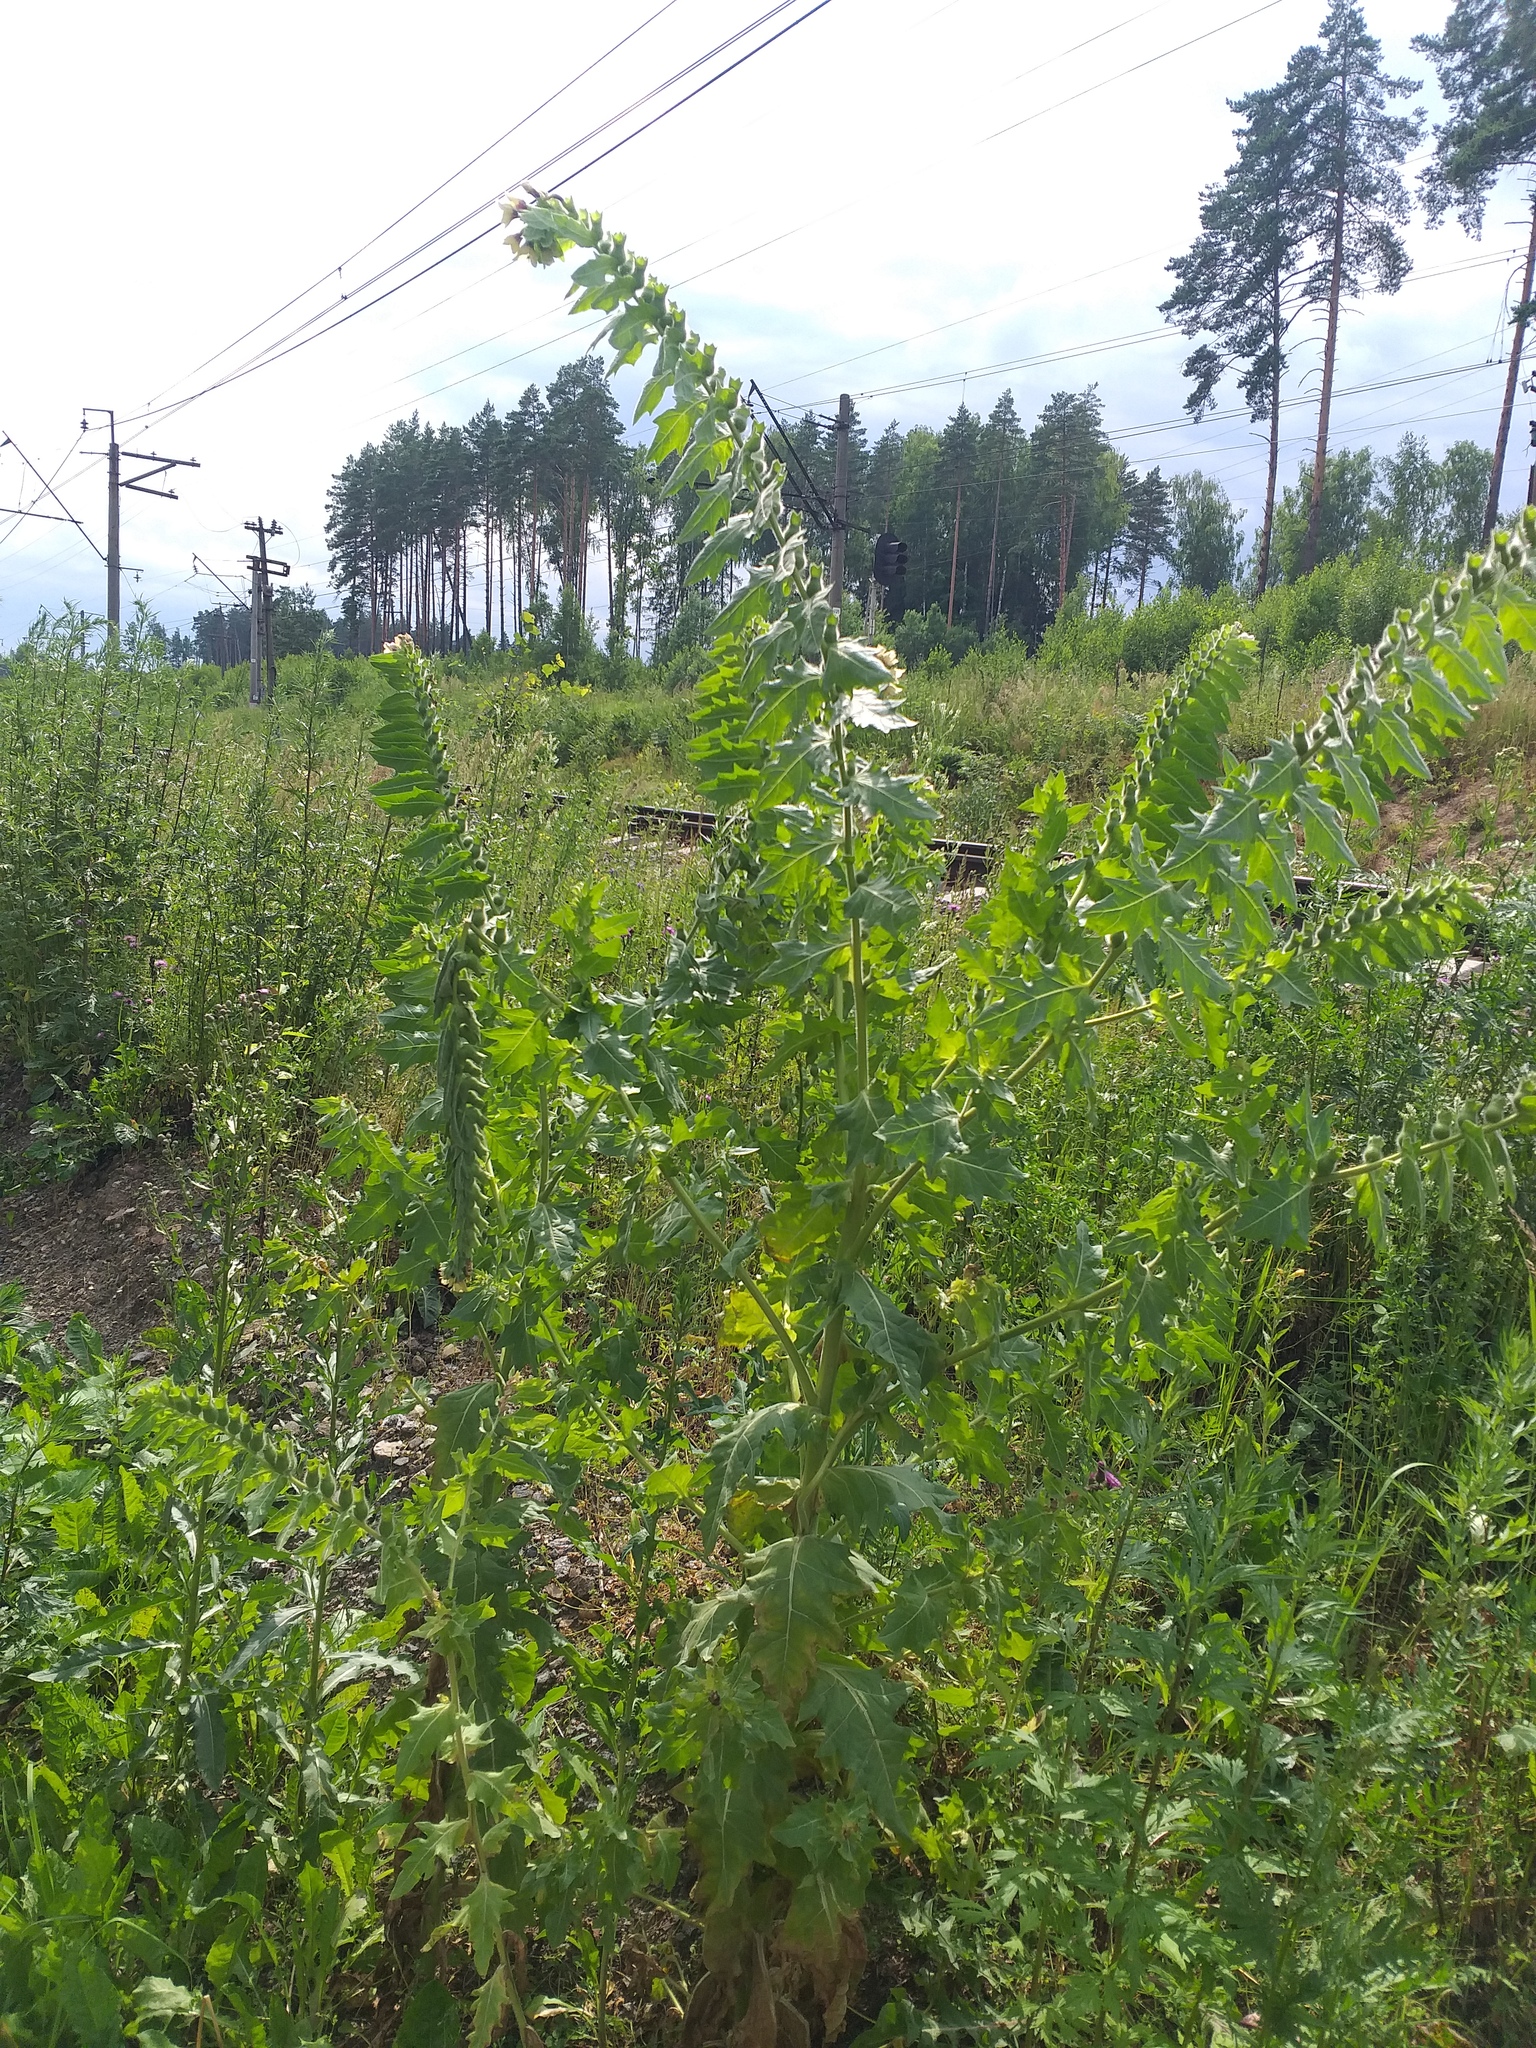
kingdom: Plantae
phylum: Tracheophyta
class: Magnoliopsida
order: Solanales
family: Solanaceae
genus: Hyoscyamus
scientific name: Hyoscyamus niger
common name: Henbane
